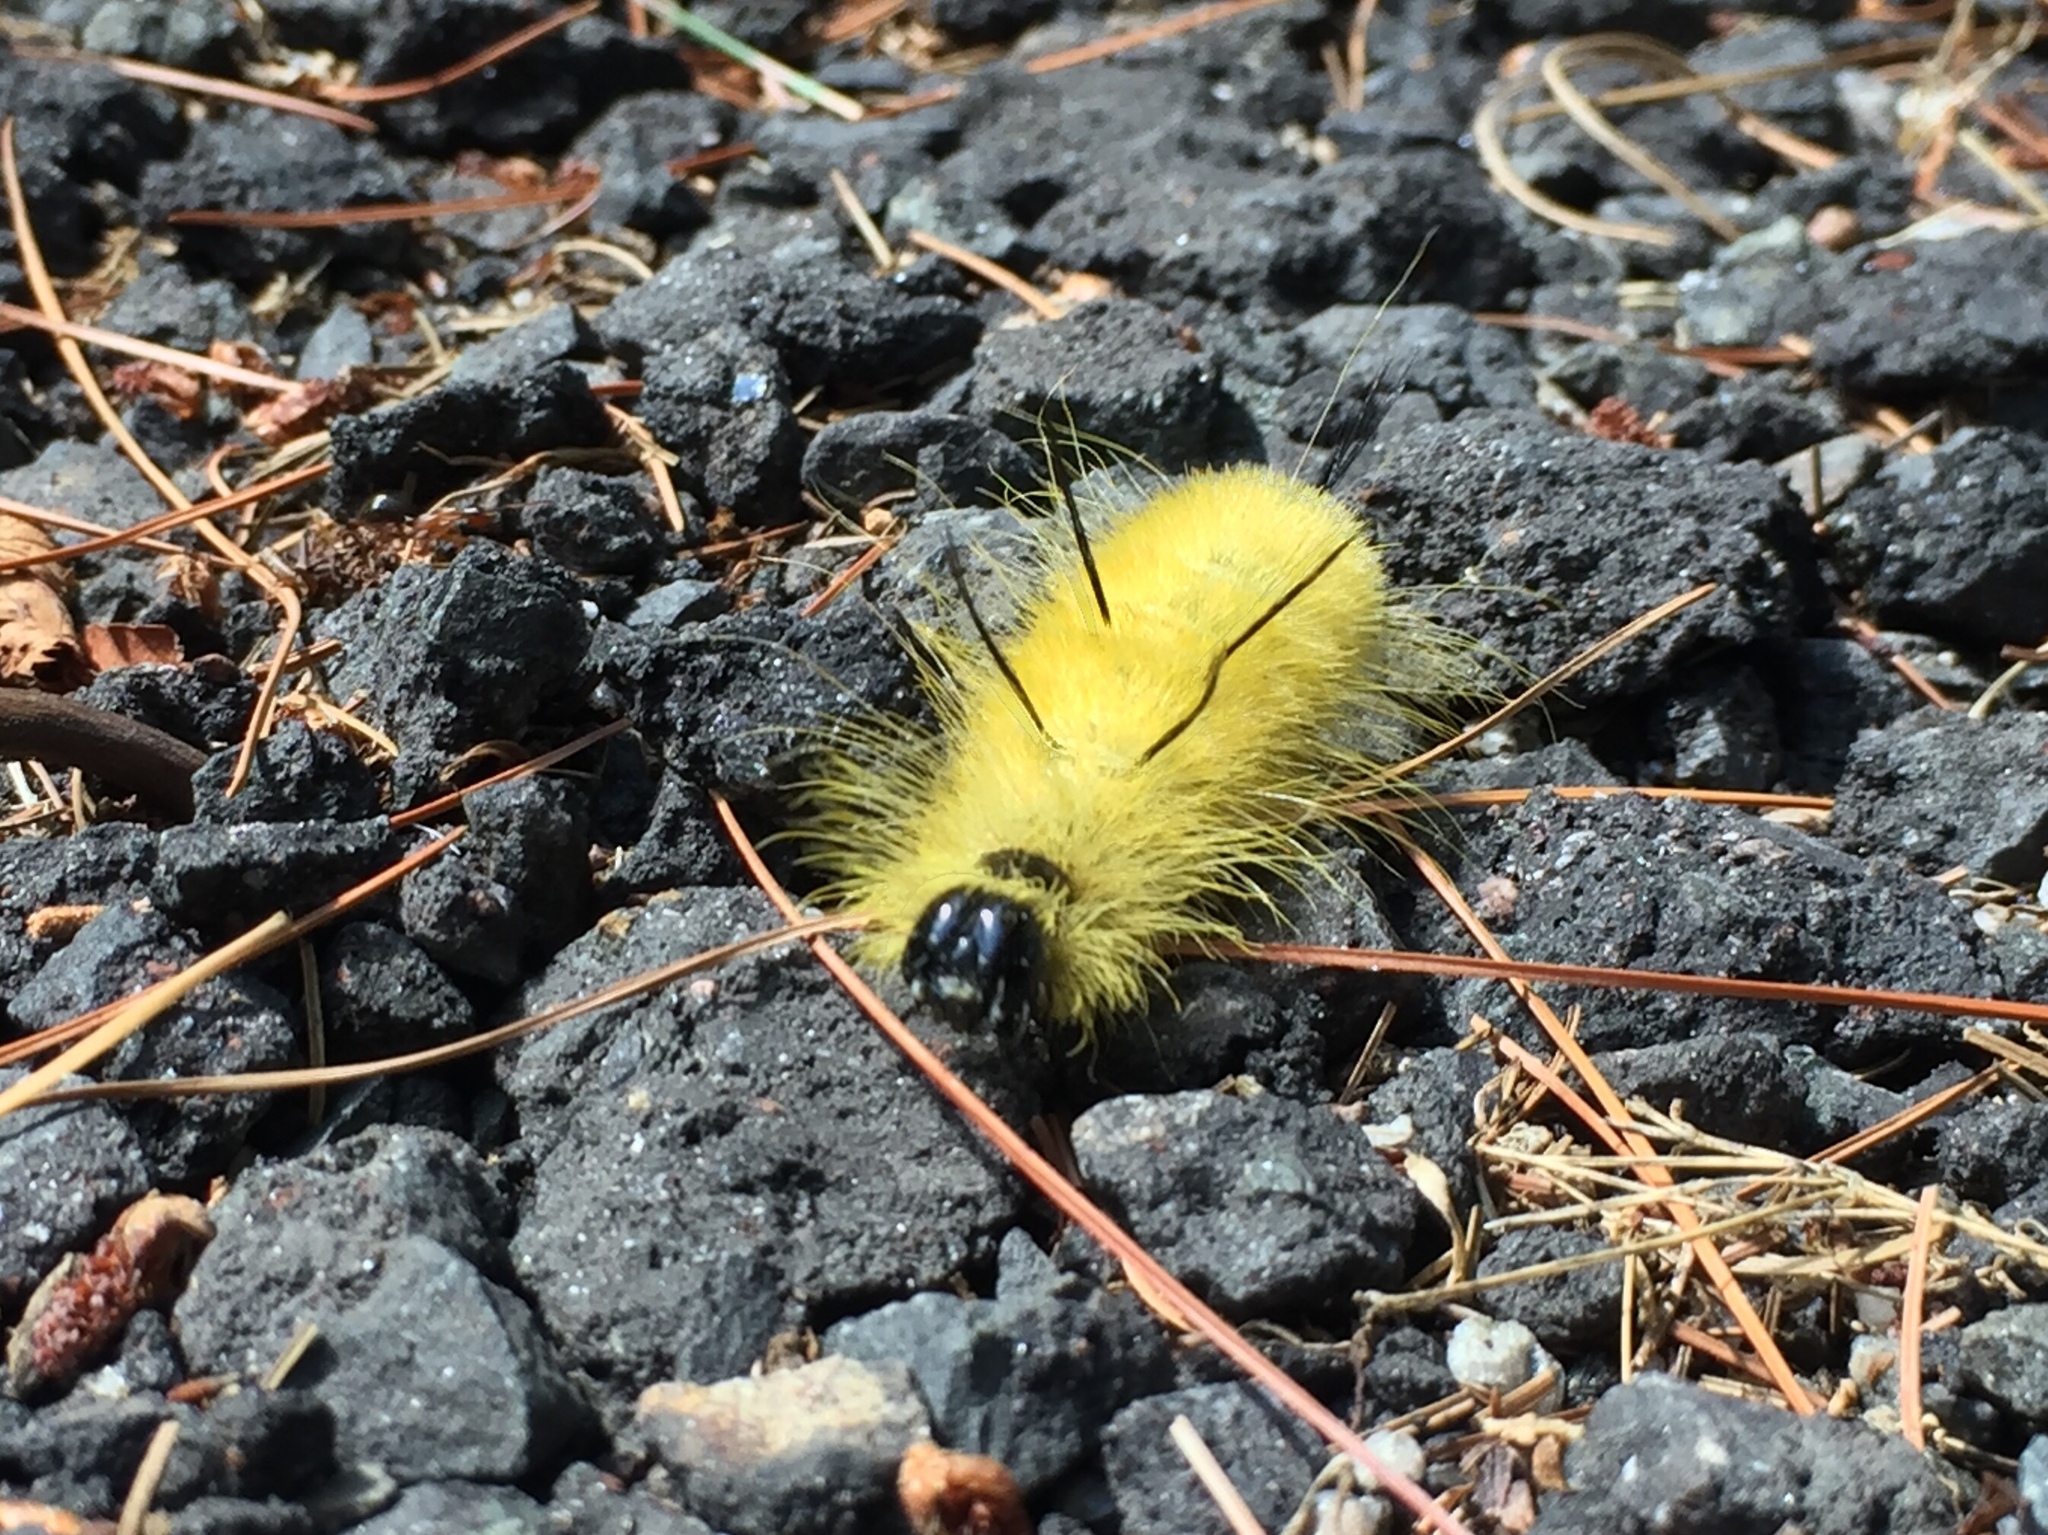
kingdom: Animalia
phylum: Arthropoda
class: Insecta
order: Lepidoptera
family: Noctuidae
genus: Acronicta
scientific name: Acronicta americana
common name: American dagger
